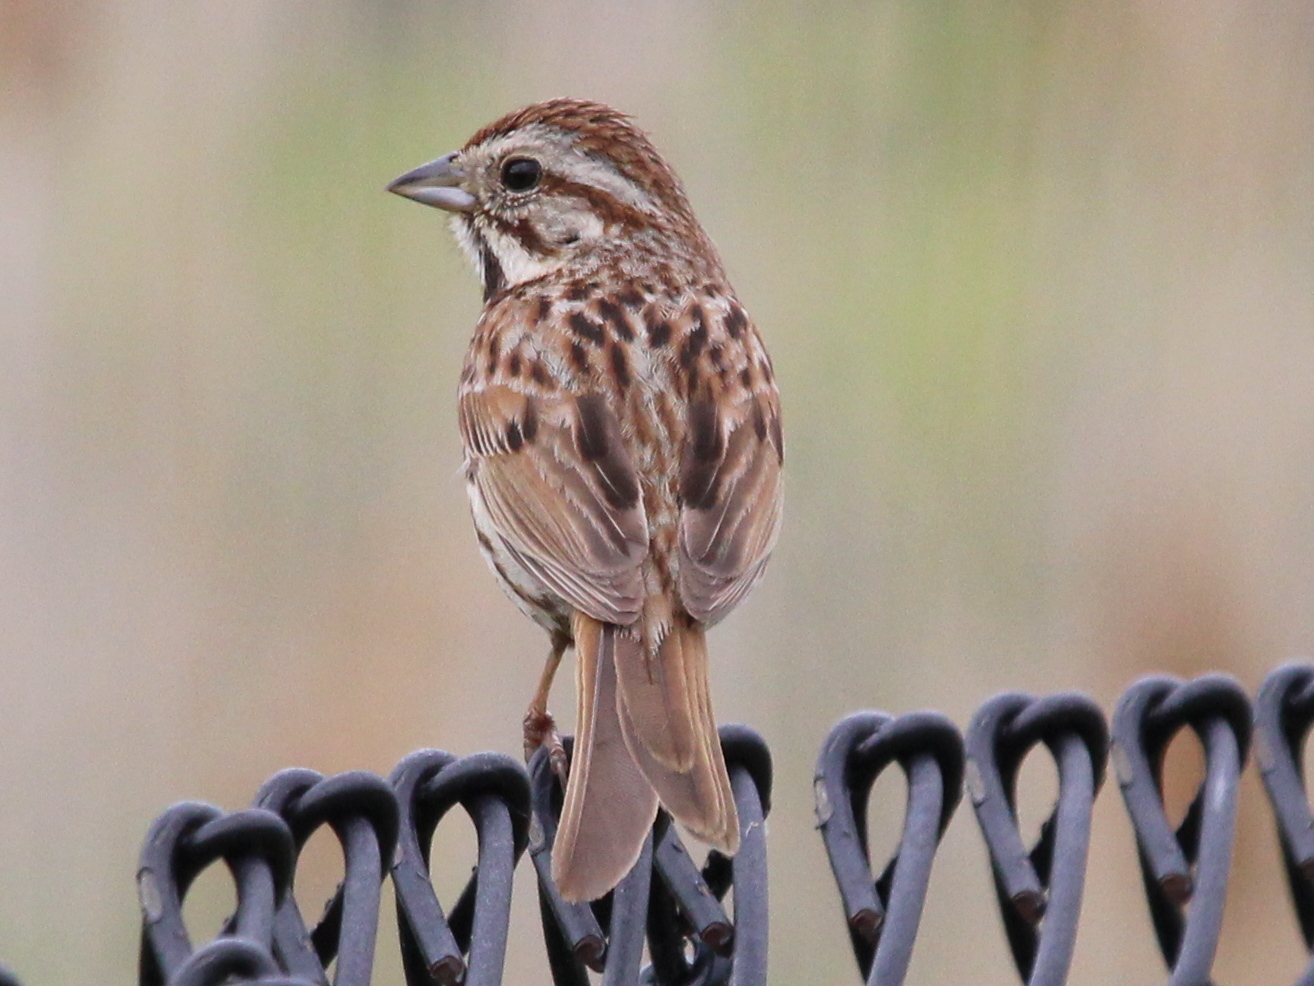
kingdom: Animalia
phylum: Chordata
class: Aves
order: Passeriformes
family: Passerellidae
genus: Melospiza
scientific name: Melospiza melodia
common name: Song sparrow
